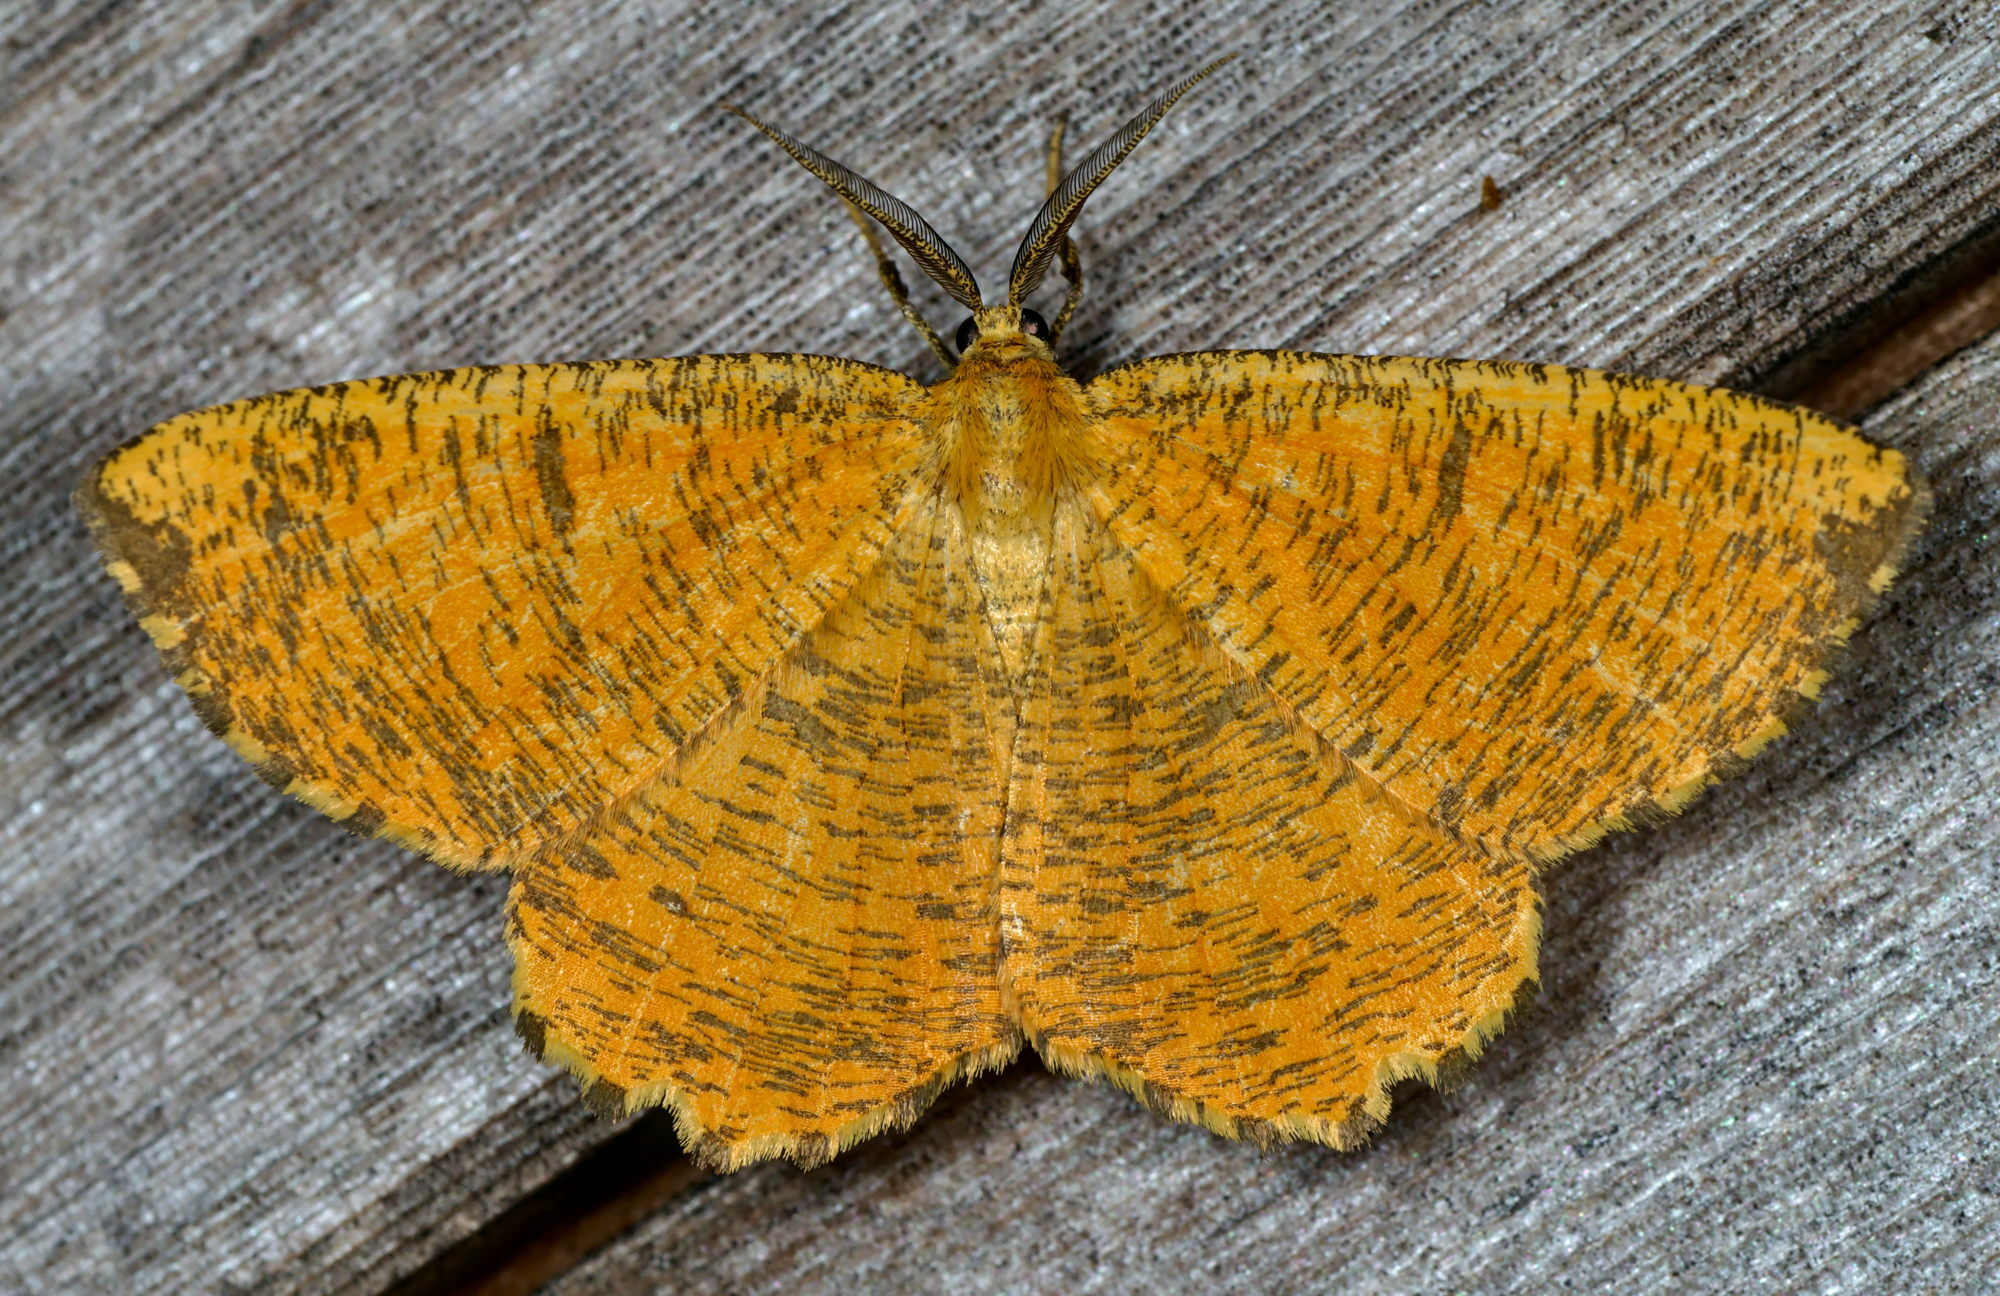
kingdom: Animalia
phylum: Arthropoda
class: Insecta
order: Lepidoptera
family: Geometridae
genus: Angerona
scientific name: Angerona prunaria
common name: Orange moth
